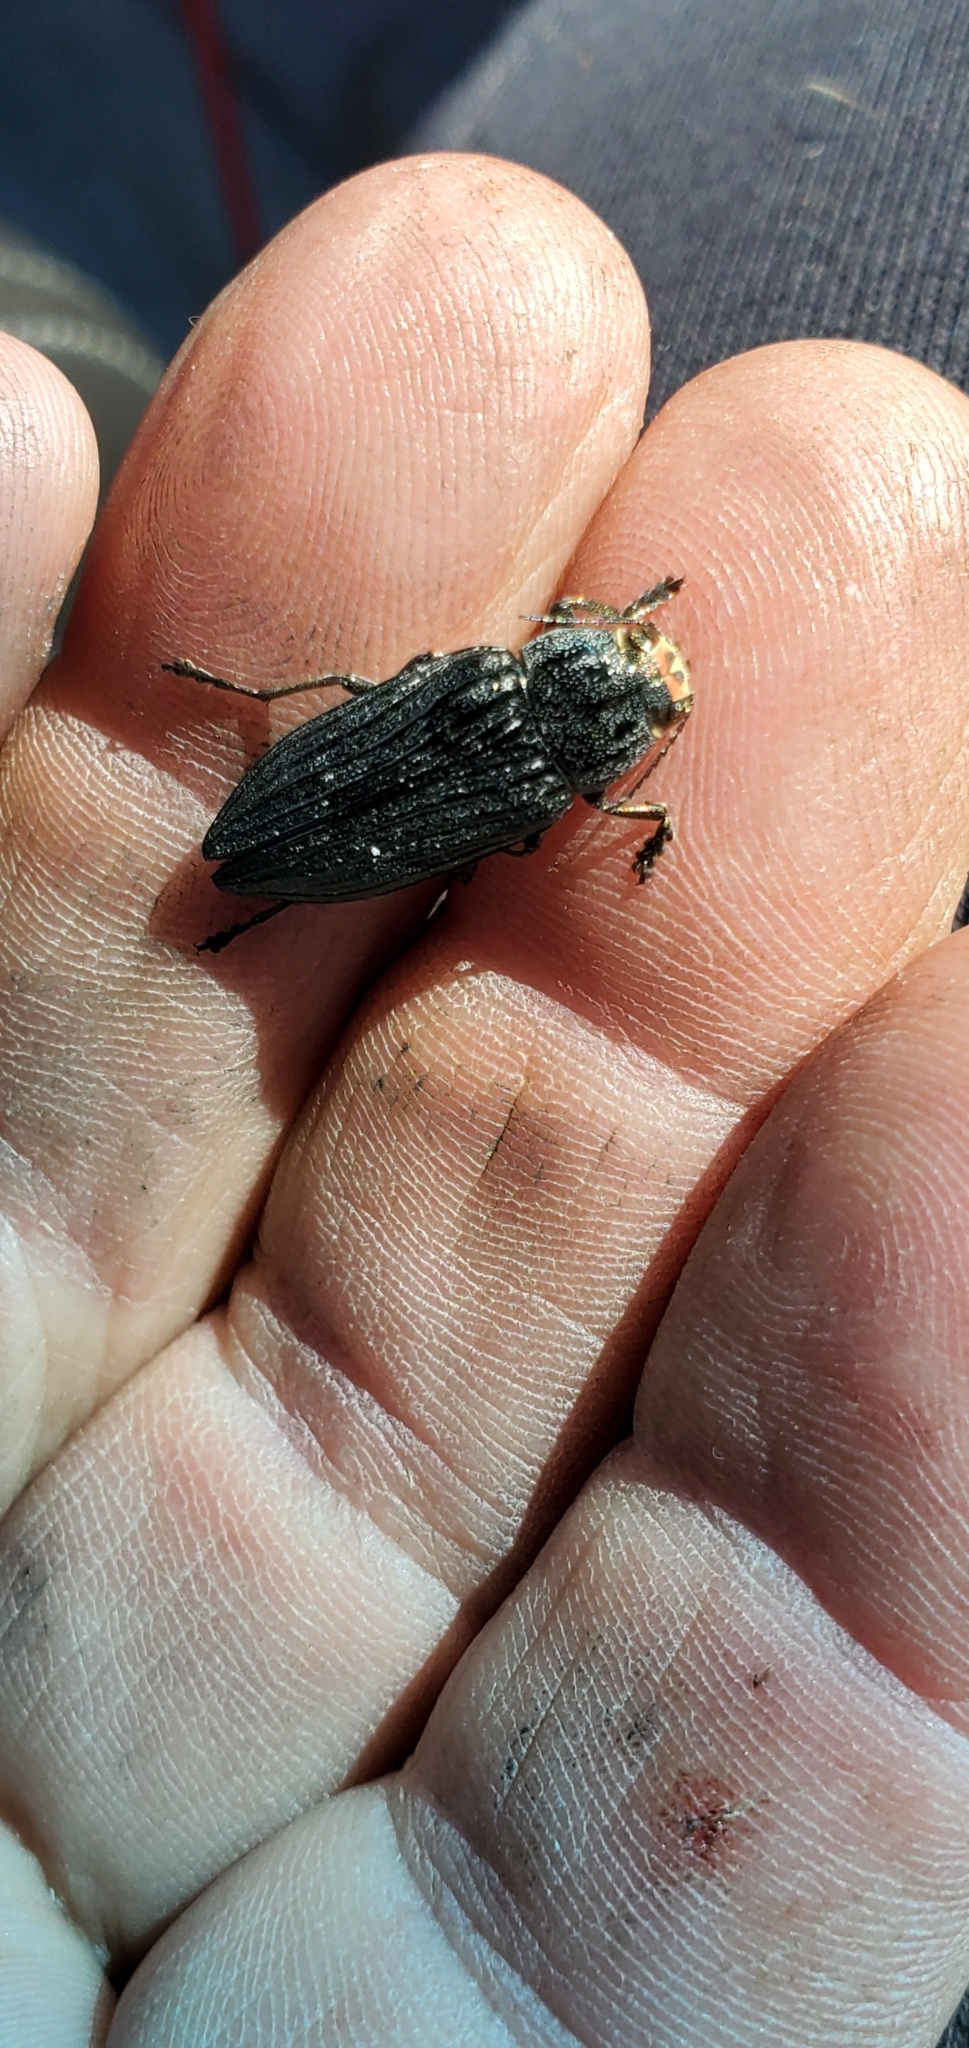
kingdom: Animalia
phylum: Arthropoda
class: Insecta
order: Coleoptera
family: Buprestidae
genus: Buprestis
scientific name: Buprestis lyrata
